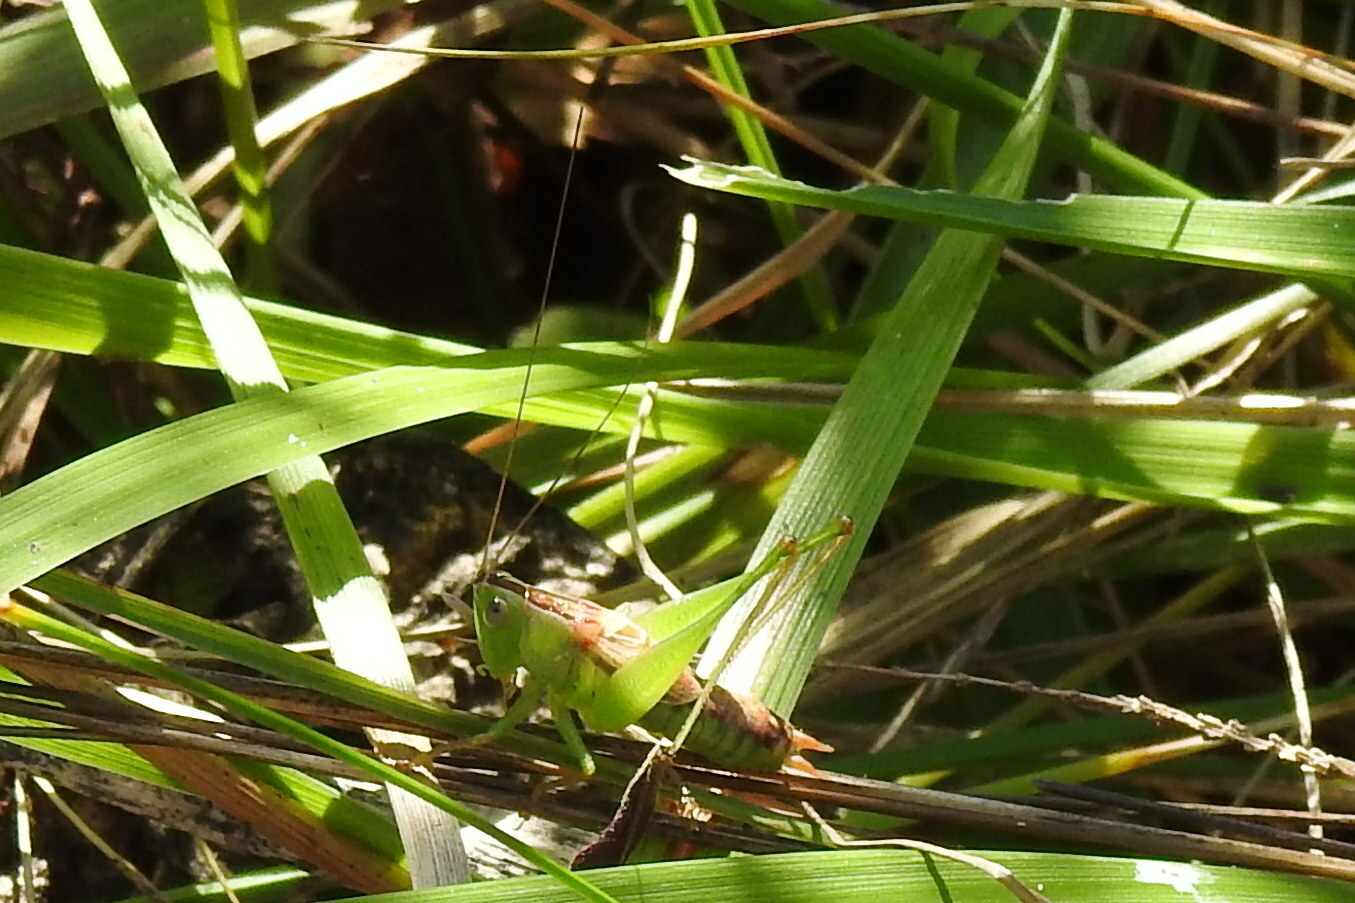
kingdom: Animalia
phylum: Arthropoda
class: Insecta
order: Orthoptera
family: Tettigoniidae
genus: Conocephalus
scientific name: Conocephalus strictus
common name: Straight-lanced katydid
